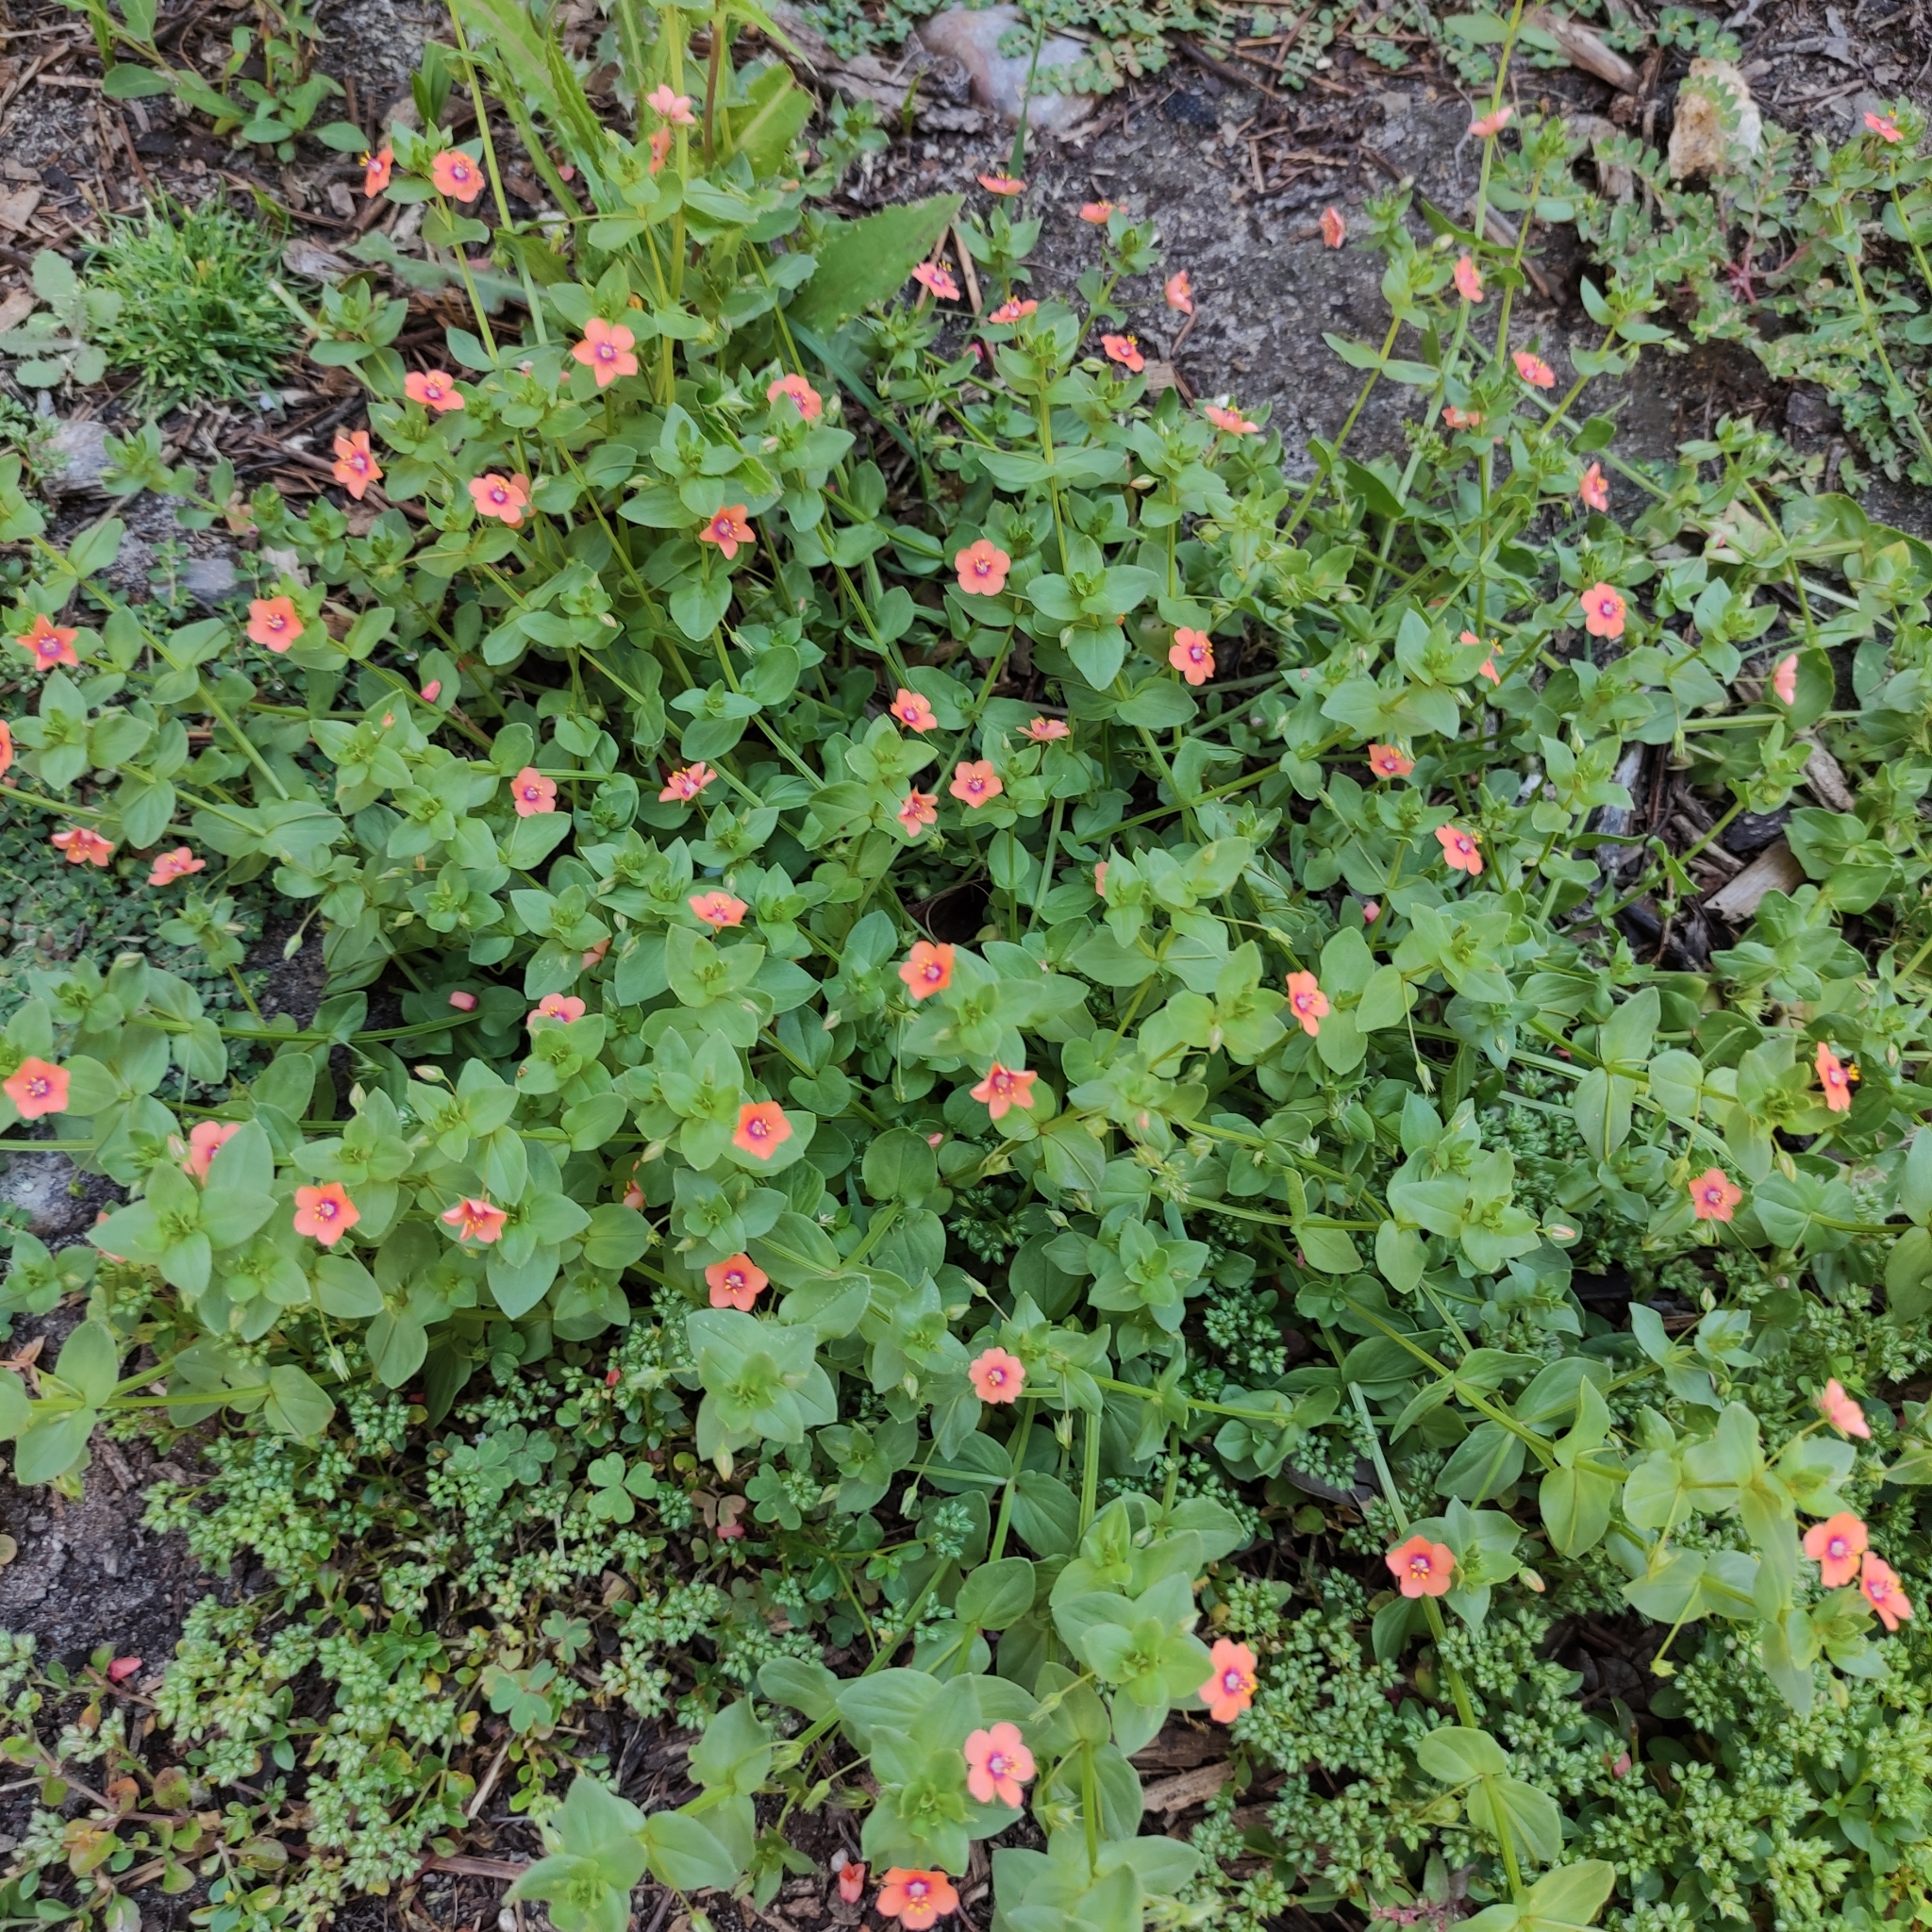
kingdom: Plantae
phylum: Tracheophyta
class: Magnoliopsida
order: Ericales
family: Primulaceae
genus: Lysimachia
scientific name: Lysimachia arvensis
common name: Scarlet pimpernel
